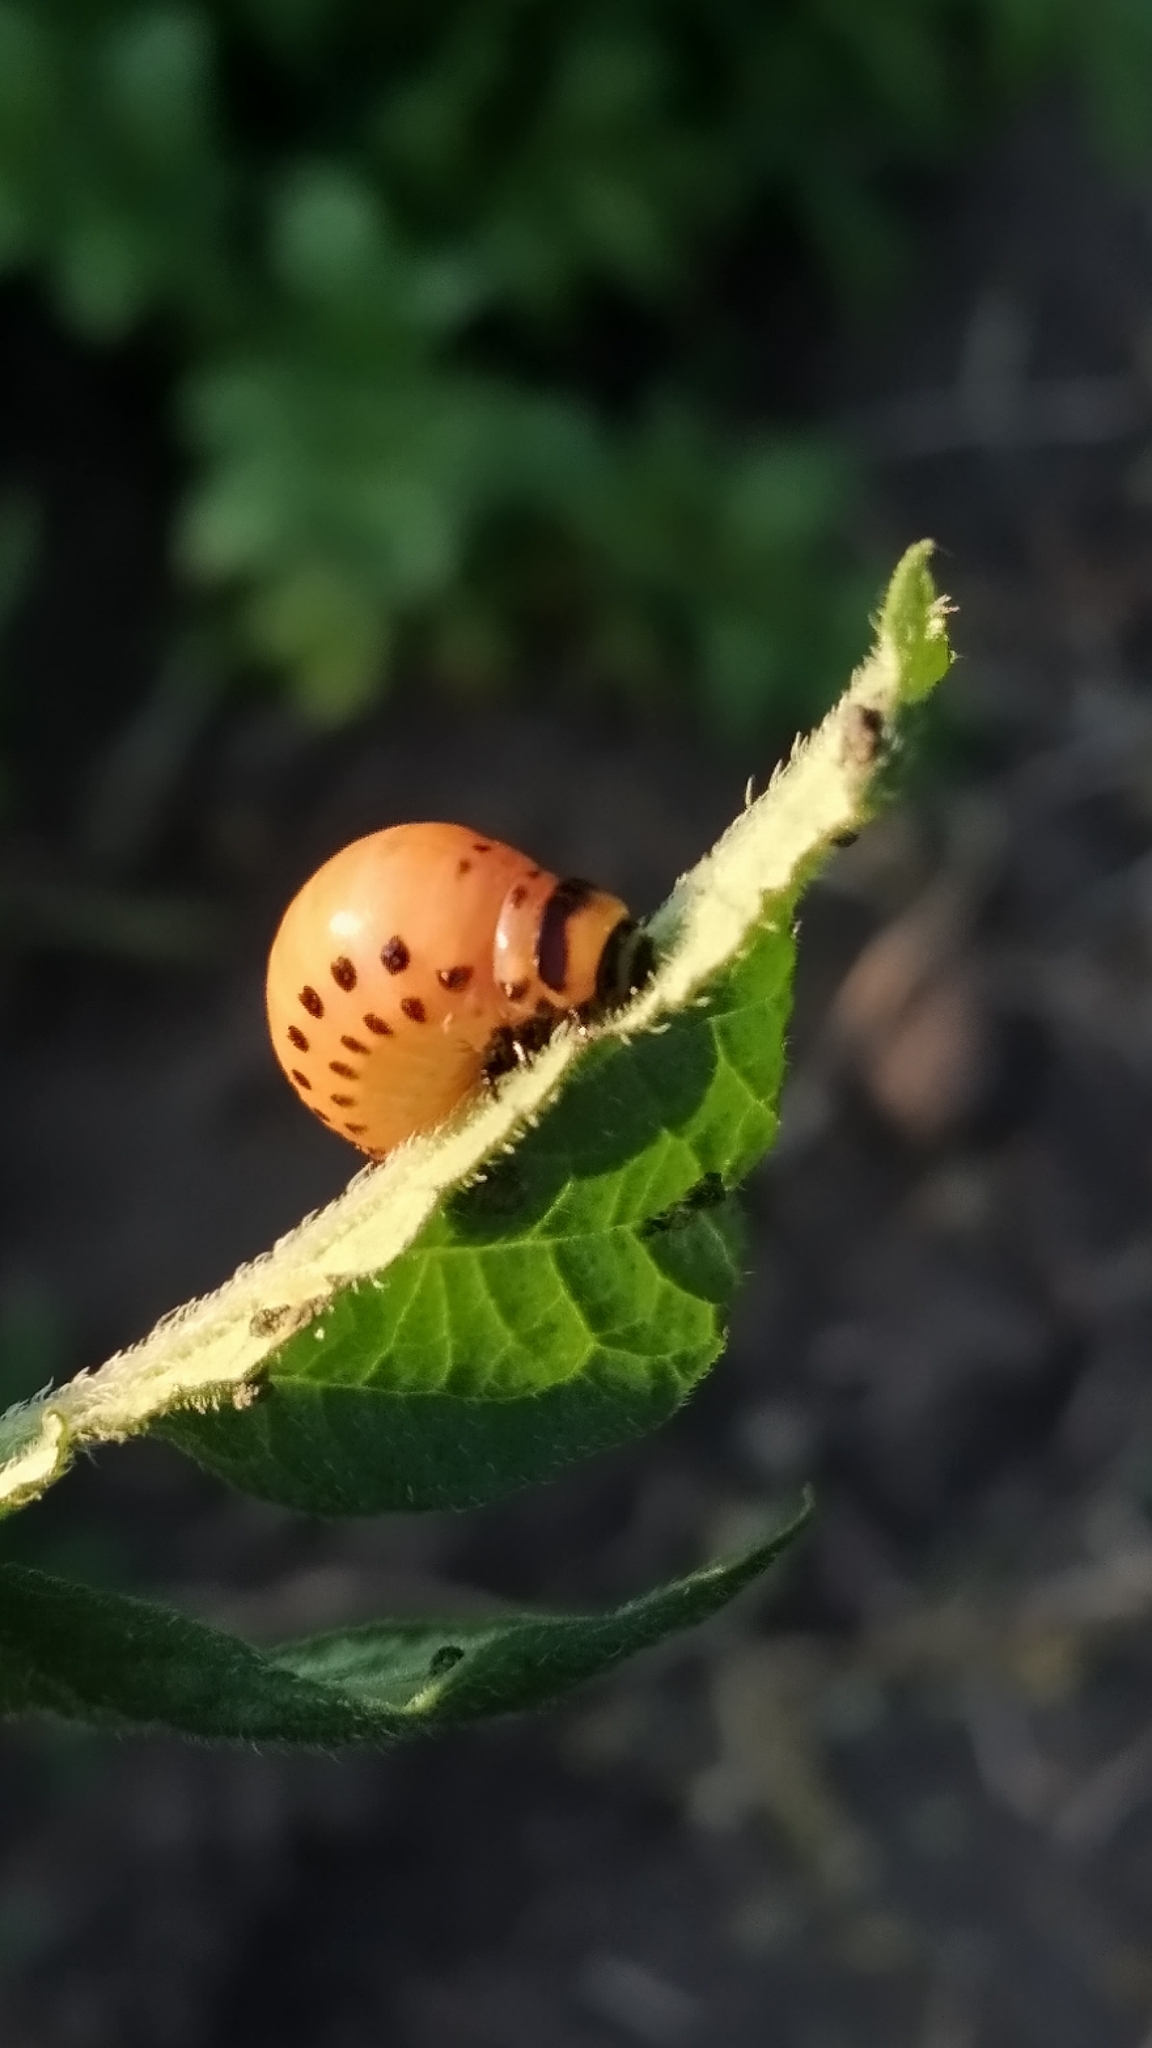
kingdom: Animalia
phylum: Arthropoda
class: Insecta
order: Coleoptera
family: Chrysomelidae
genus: Leptinotarsa
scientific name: Leptinotarsa decemlineata
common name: Colorado potato beetle
